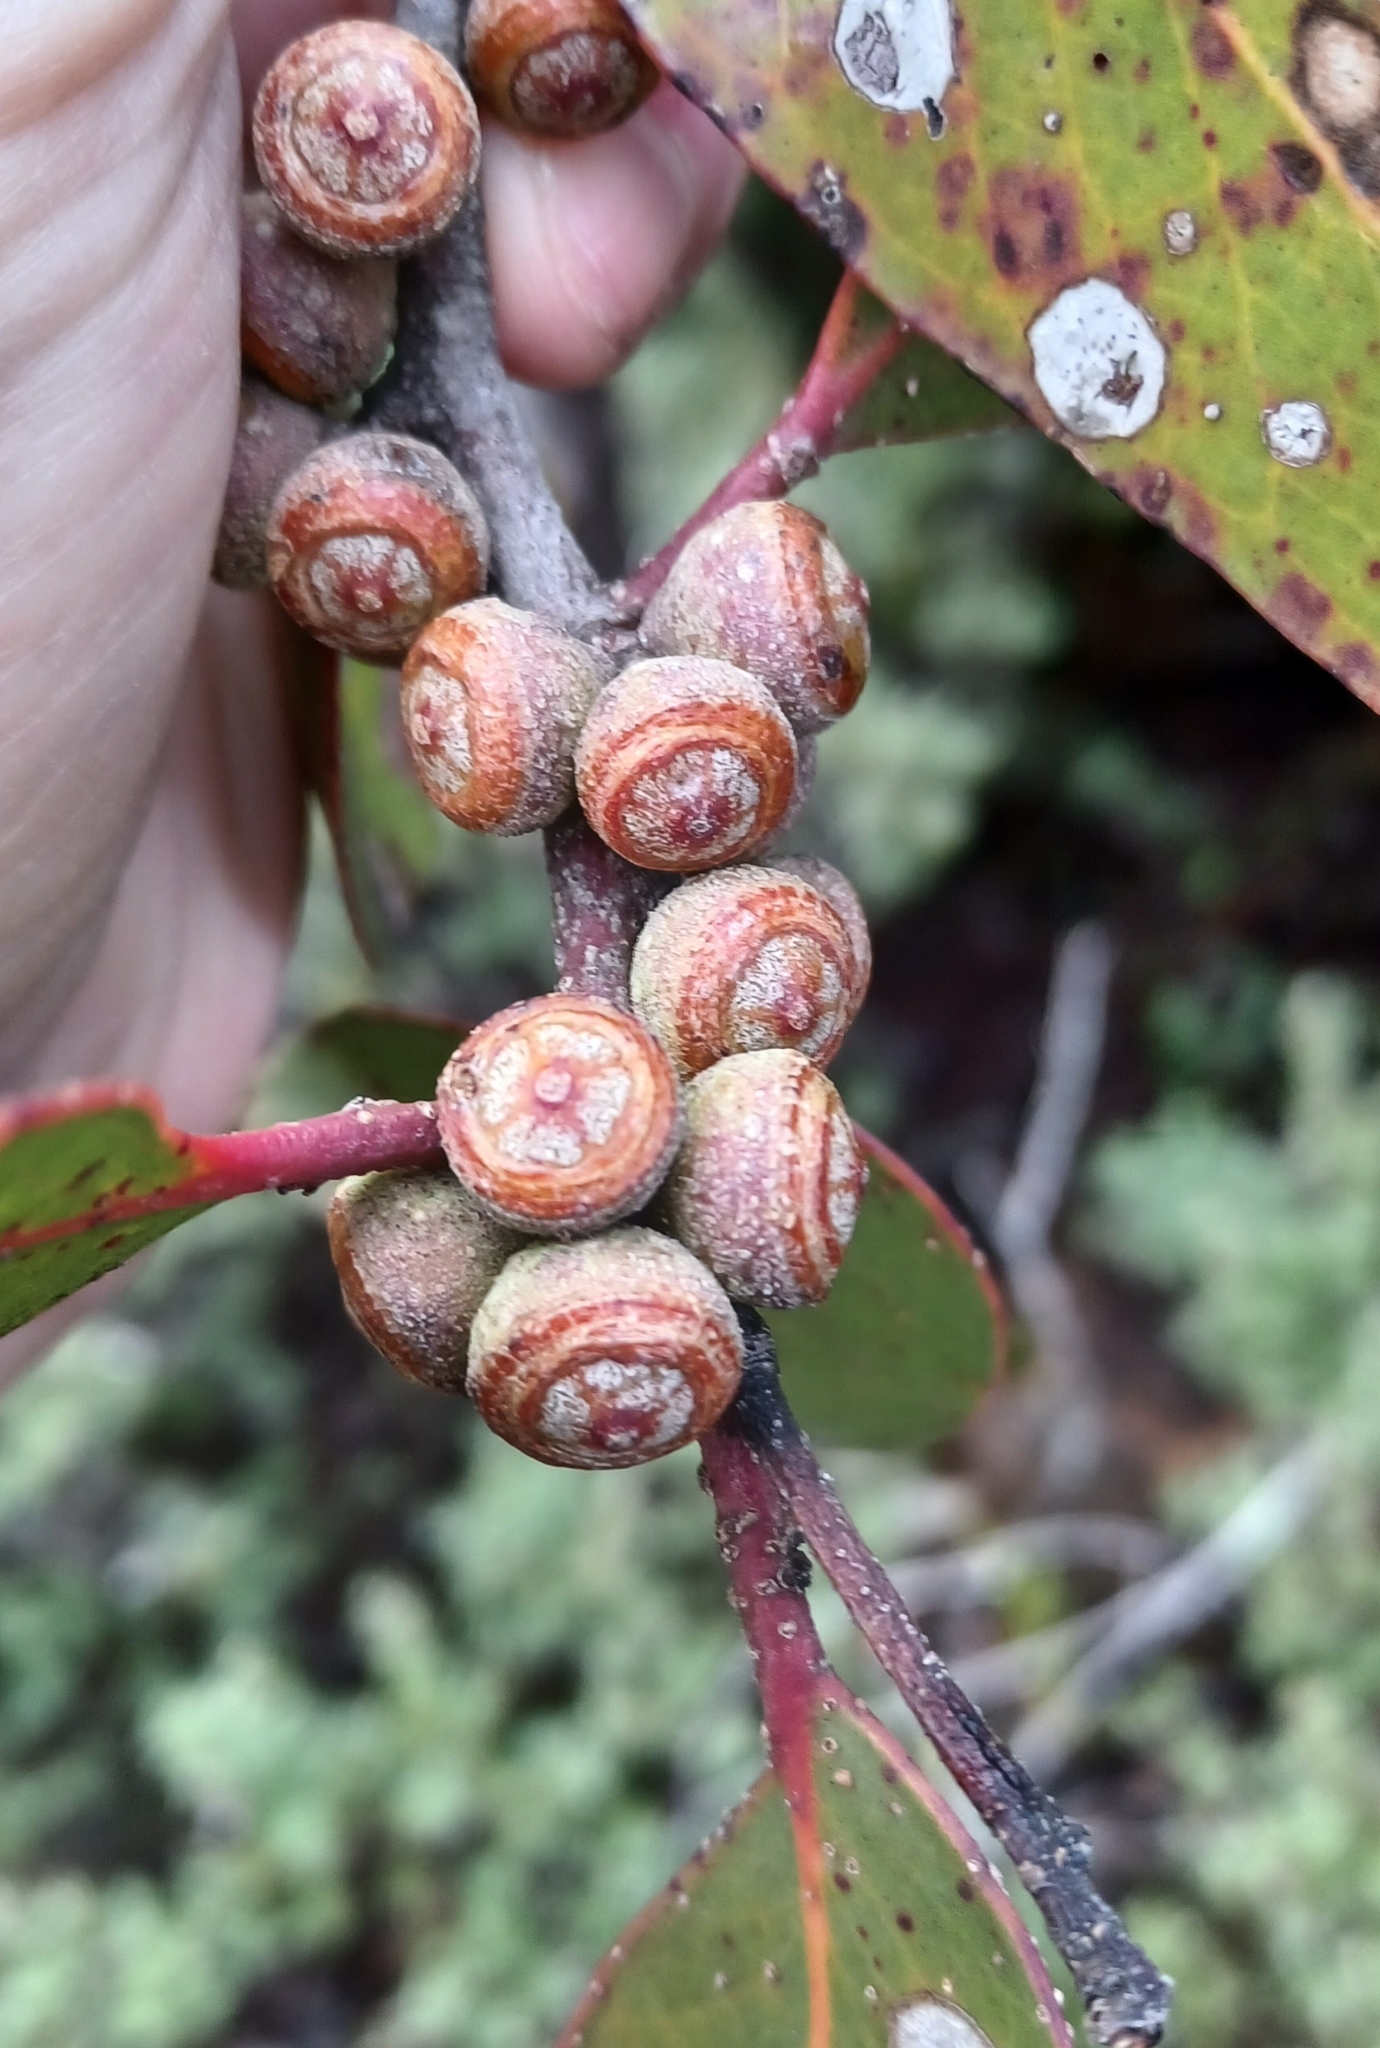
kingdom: Plantae
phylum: Tracheophyta
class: Magnoliopsida
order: Myrtales
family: Myrtaceae
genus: Eucalyptus
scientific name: Eucalyptus baxteri
